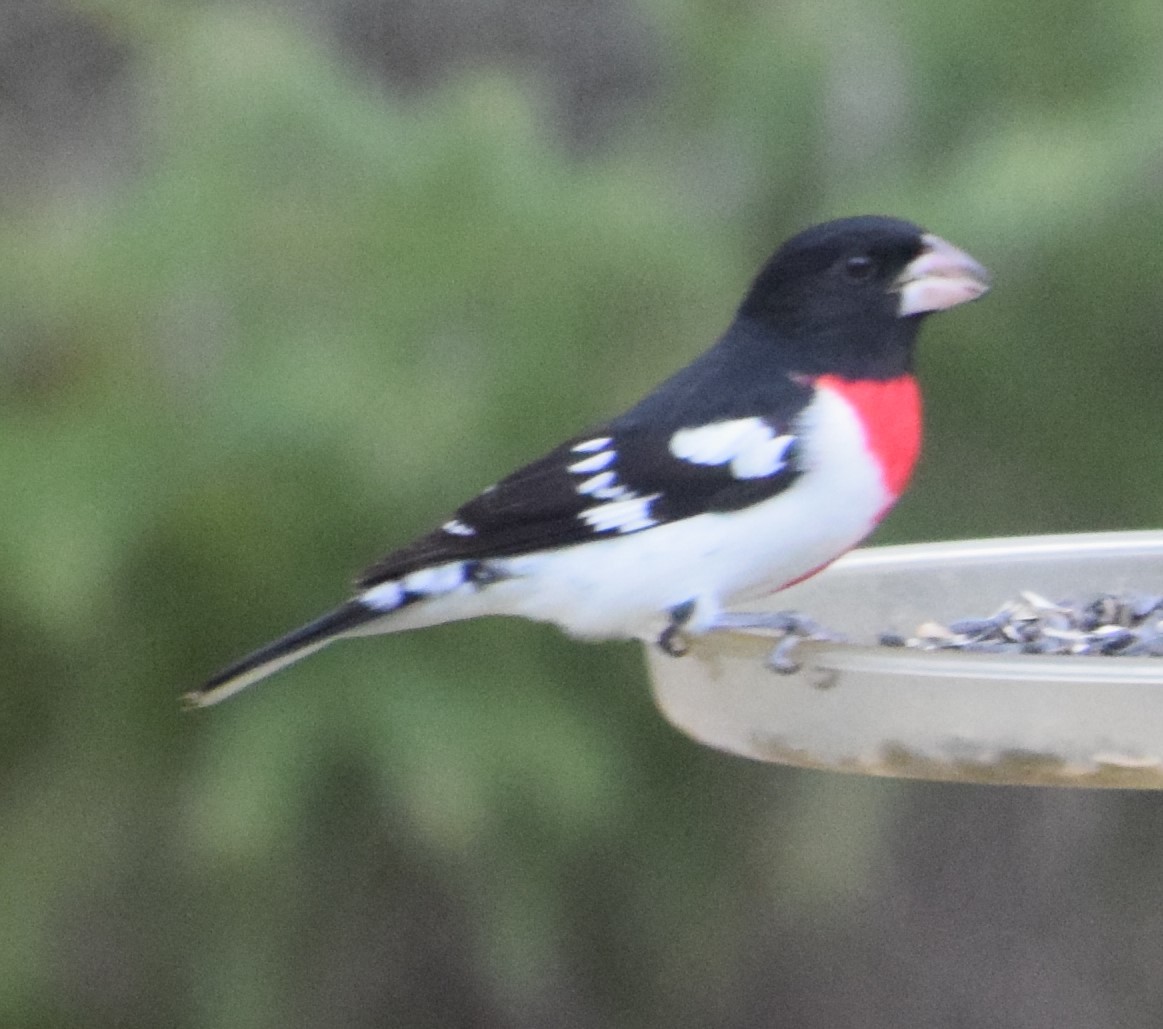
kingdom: Animalia
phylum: Chordata
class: Aves
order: Passeriformes
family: Cardinalidae
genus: Pheucticus
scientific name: Pheucticus ludovicianus
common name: Rose-breasted grosbeak
